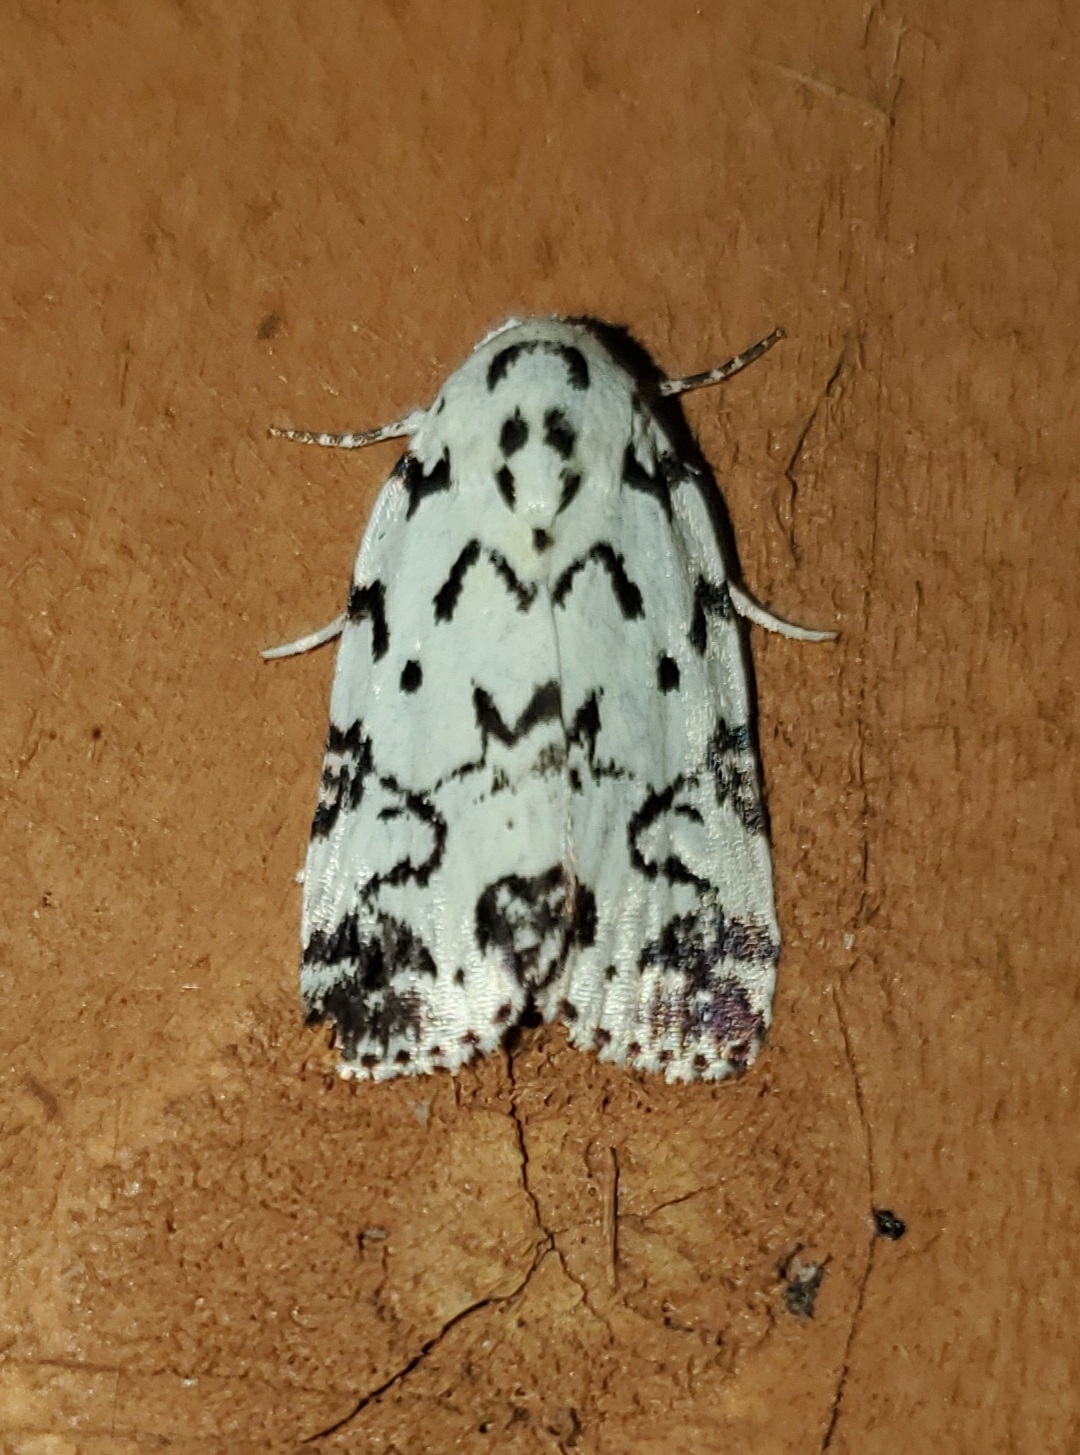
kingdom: Animalia
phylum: Arthropoda
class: Insecta
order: Lepidoptera
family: Noctuidae
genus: Polygrammate
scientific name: Polygrammate hebraeicum
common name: Hebrew moth
